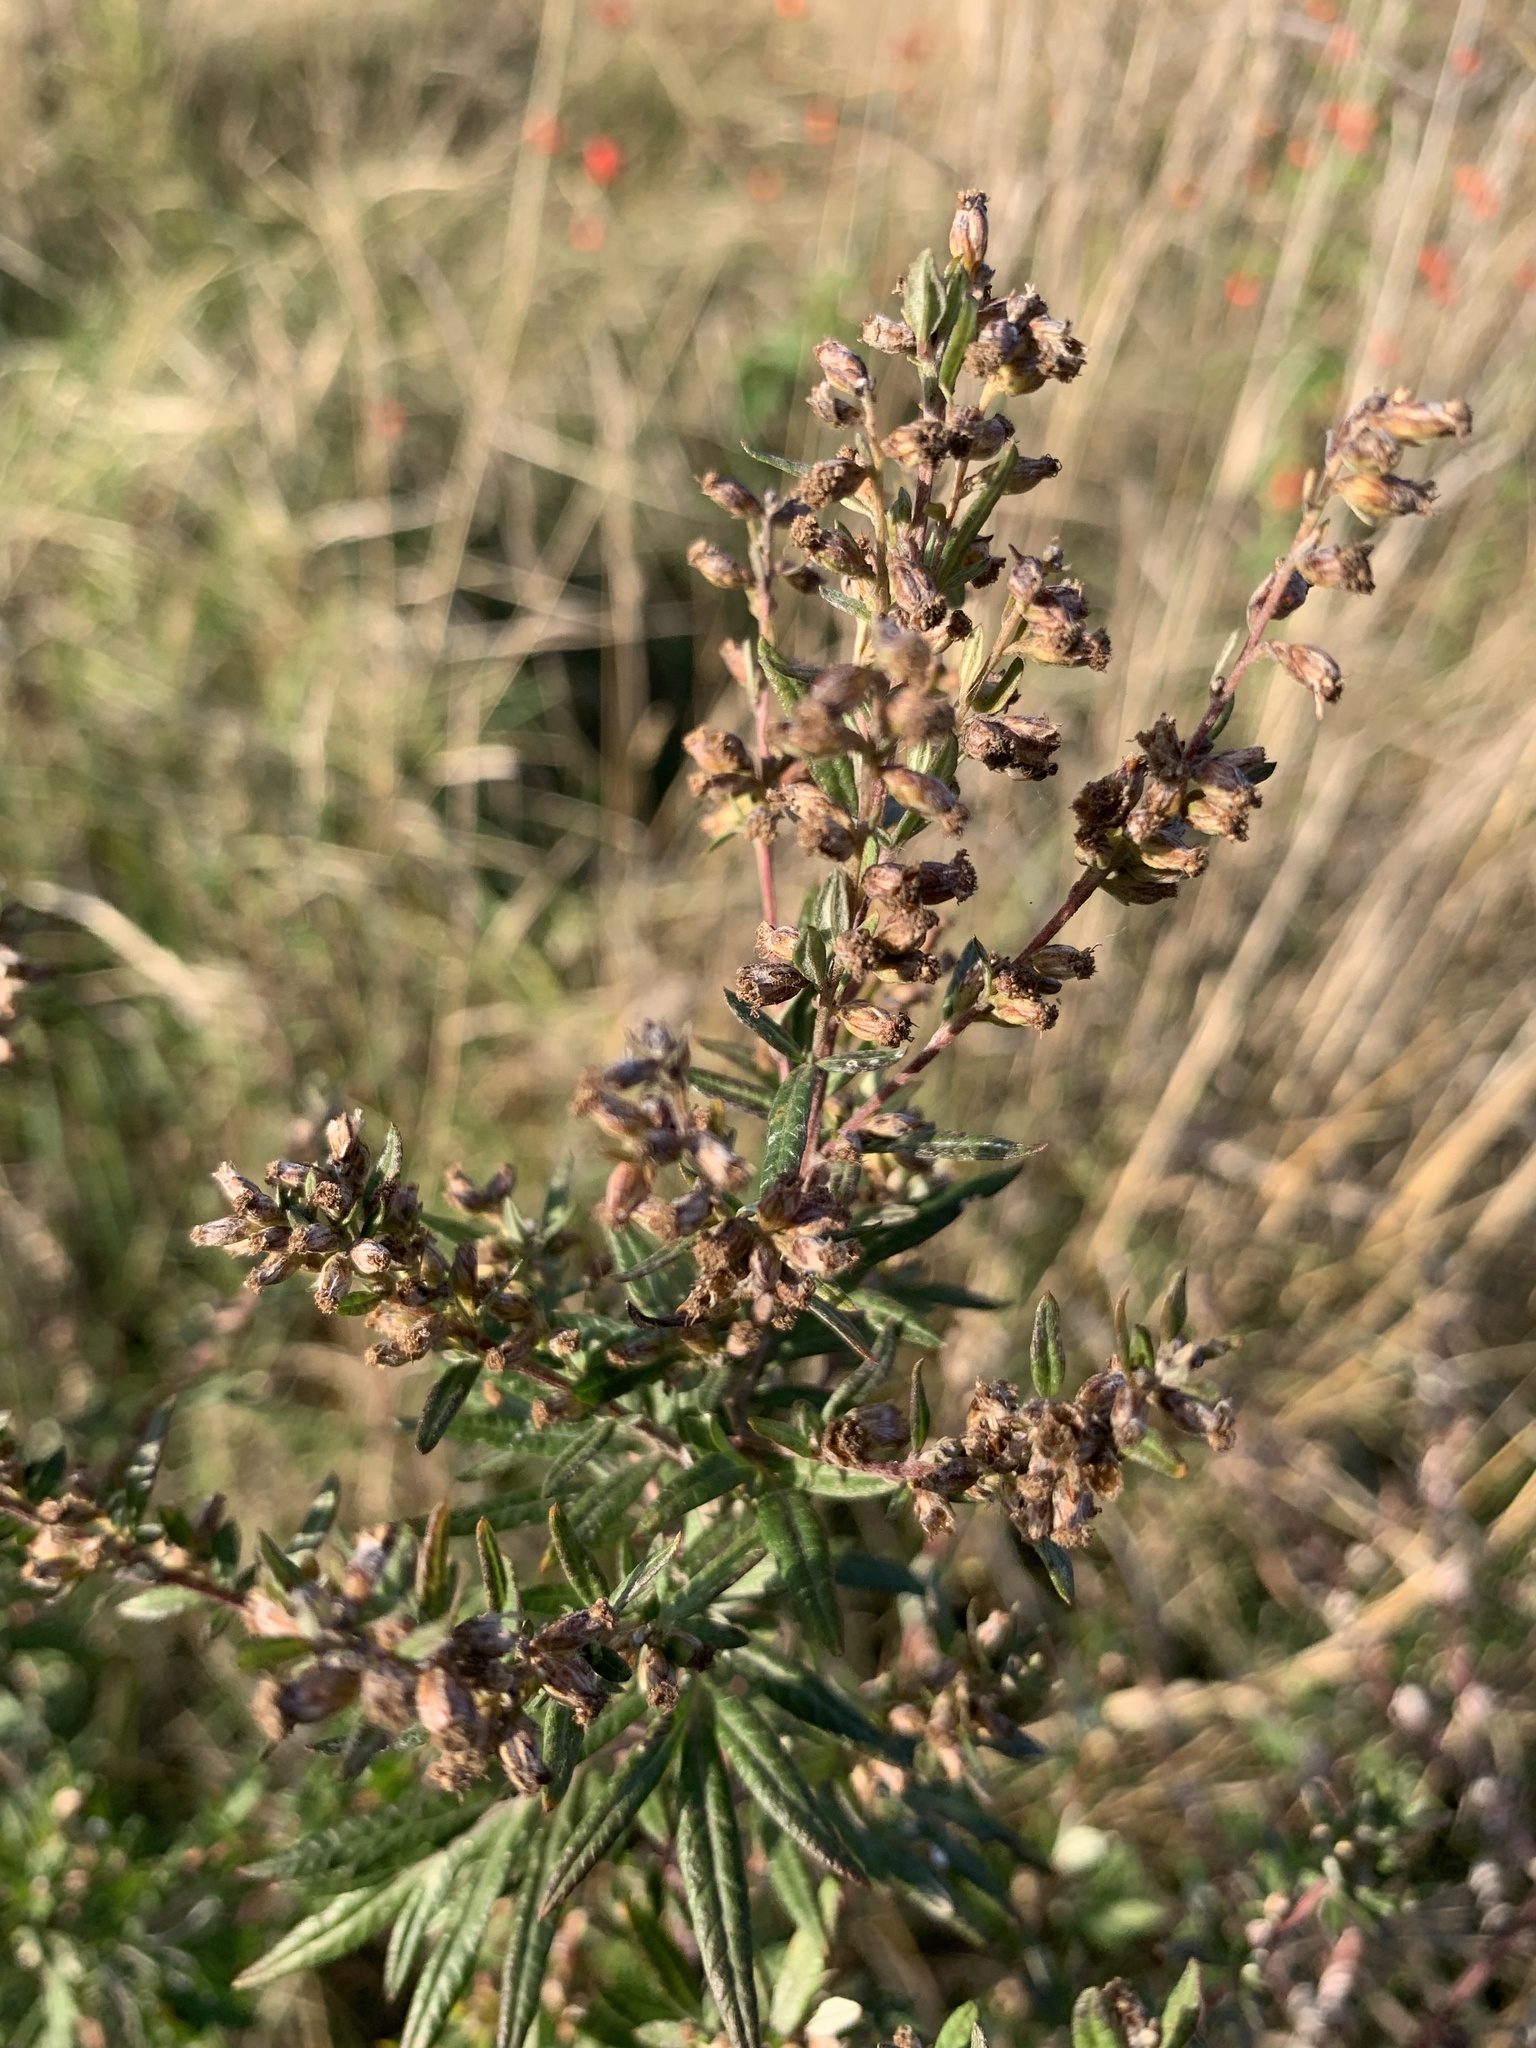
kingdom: Plantae
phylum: Tracheophyta
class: Magnoliopsida
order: Asterales
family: Asteraceae
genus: Artemisia
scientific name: Artemisia vulgaris
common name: Mugwort
